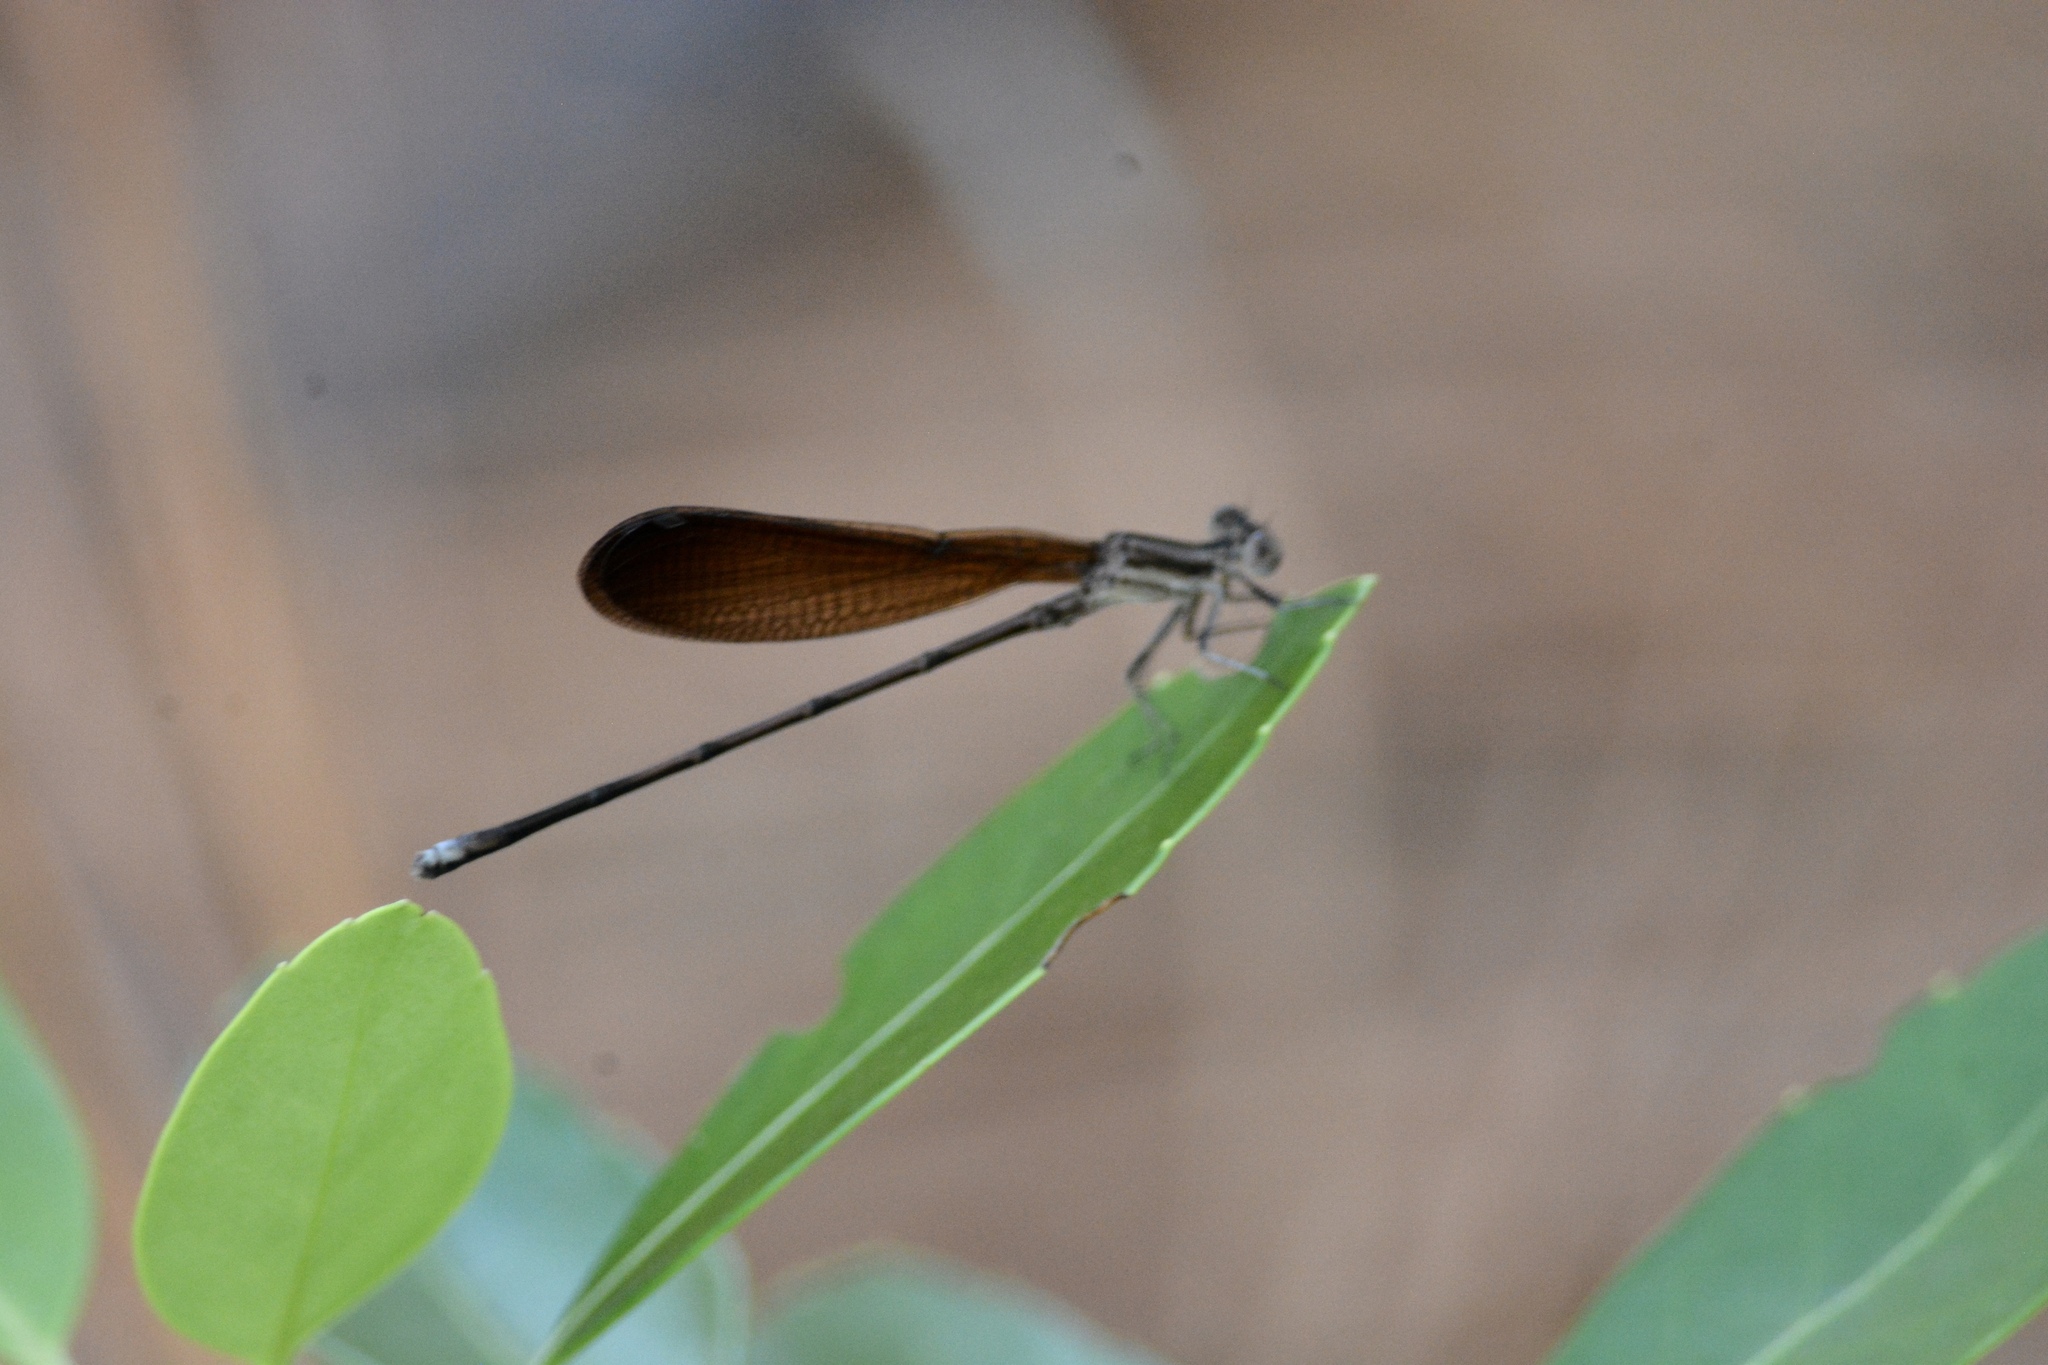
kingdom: Animalia
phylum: Arthropoda
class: Insecta
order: Odonata
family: Coenagrionidae
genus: Argia
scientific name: Argia fumipennis
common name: Variable dancer
